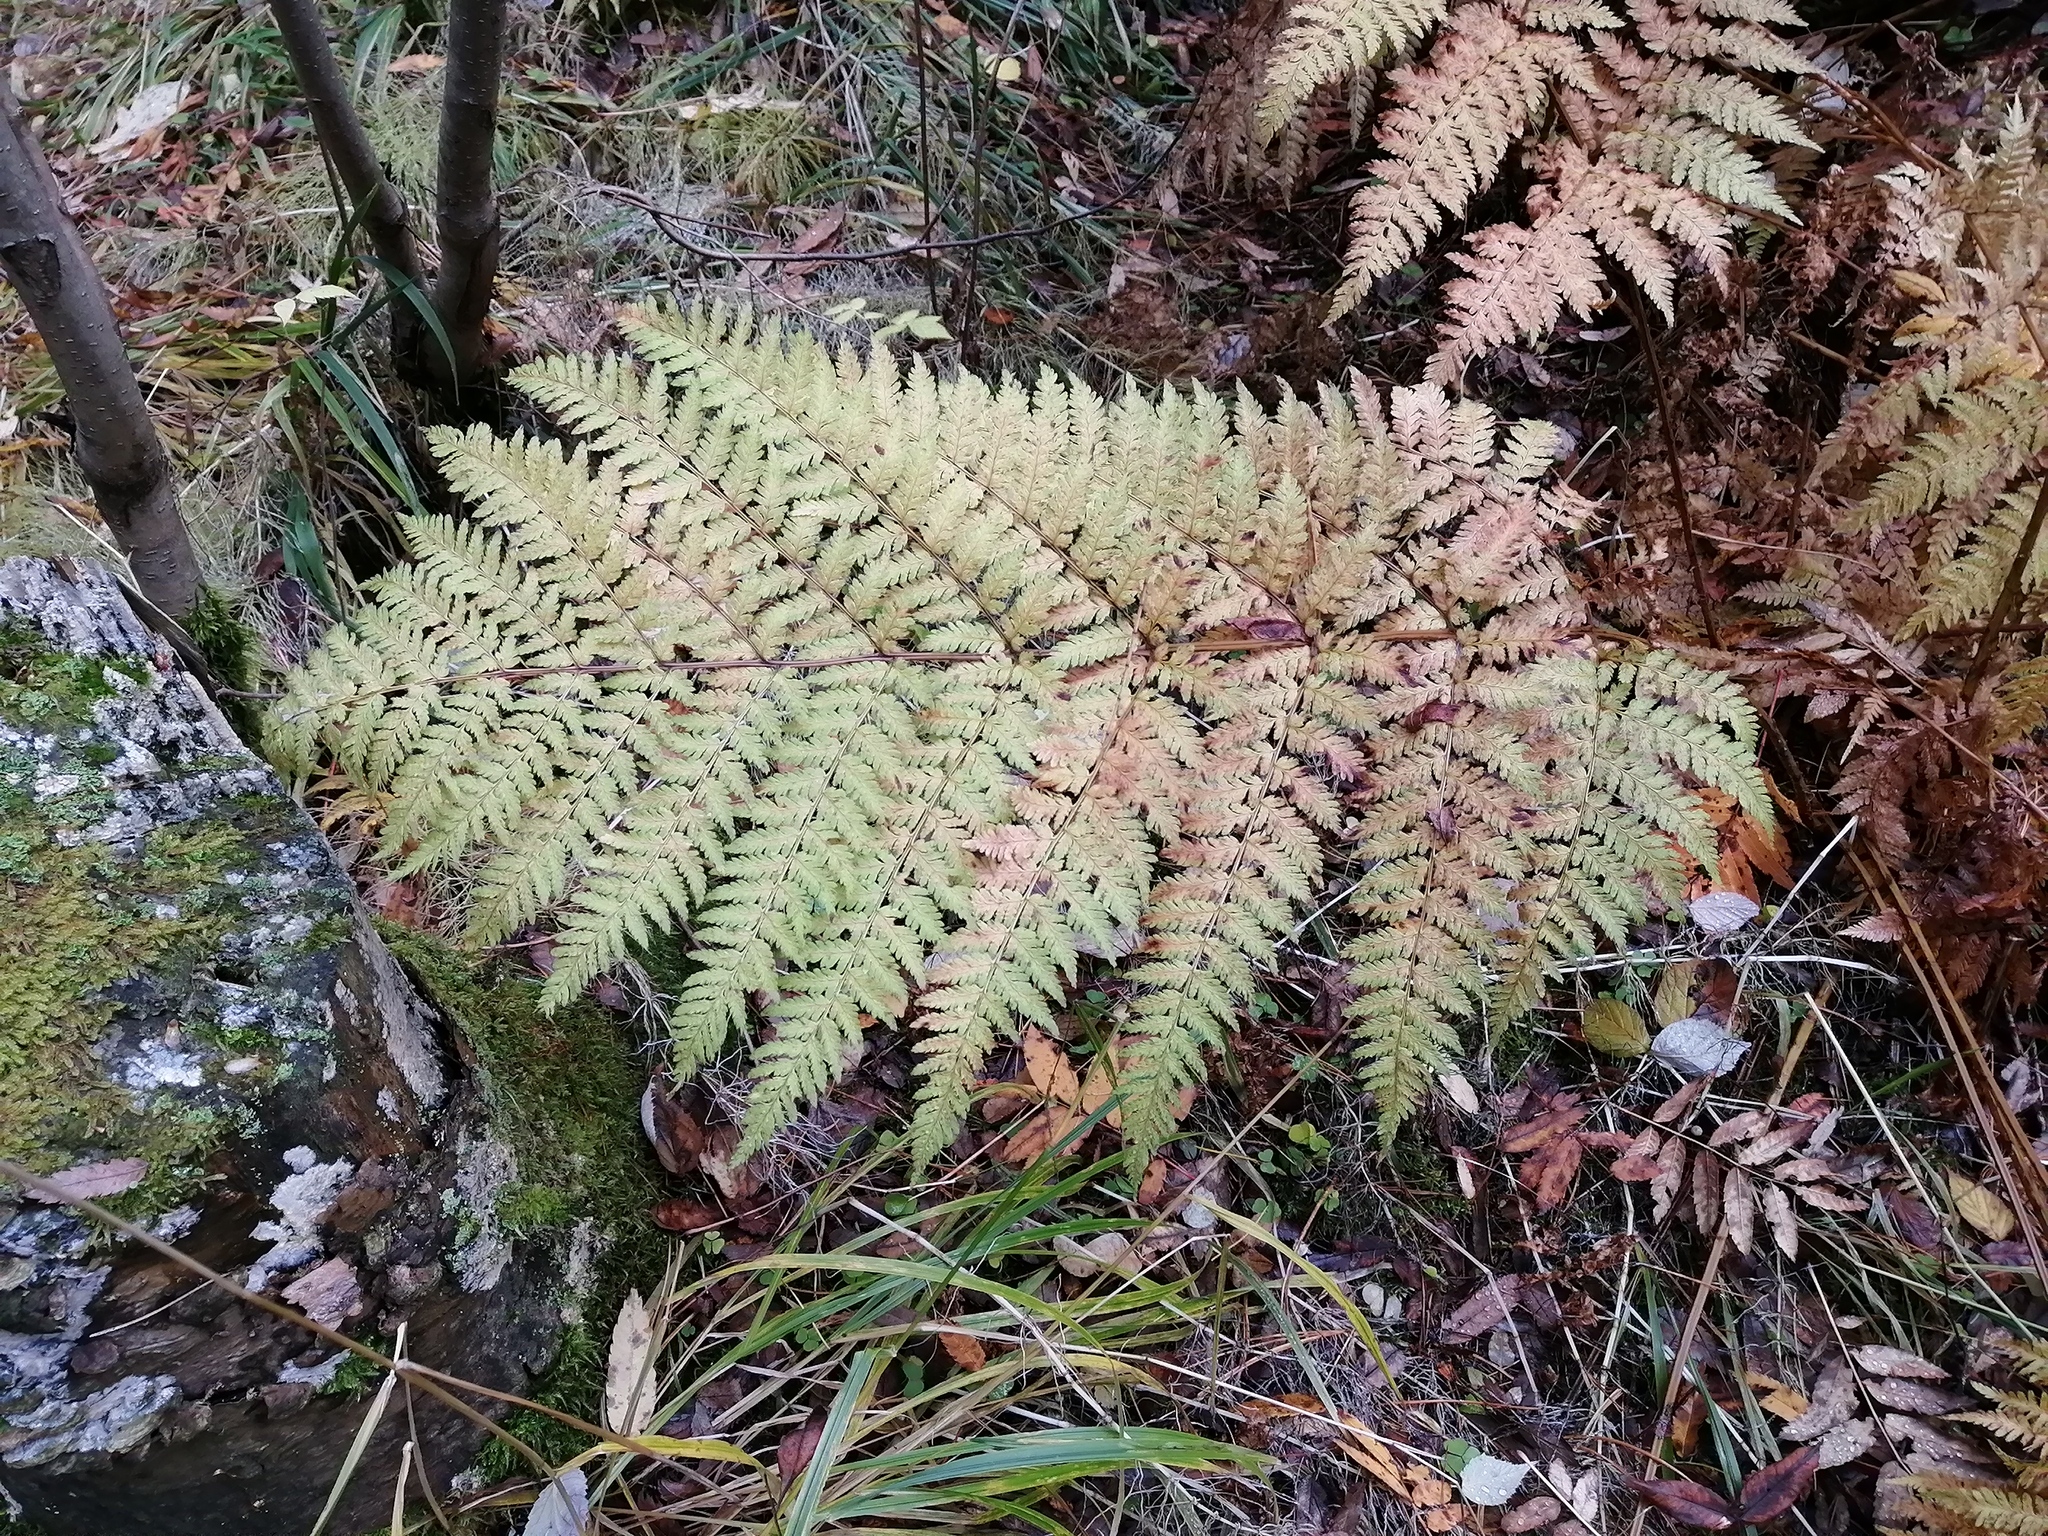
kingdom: Plantae
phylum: Tracheophyta
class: Polypodiopsida
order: Polypodiales
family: Dryopteridaceae
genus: Dryopteris
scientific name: Dryopteris expansa
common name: Northern buckler fern
